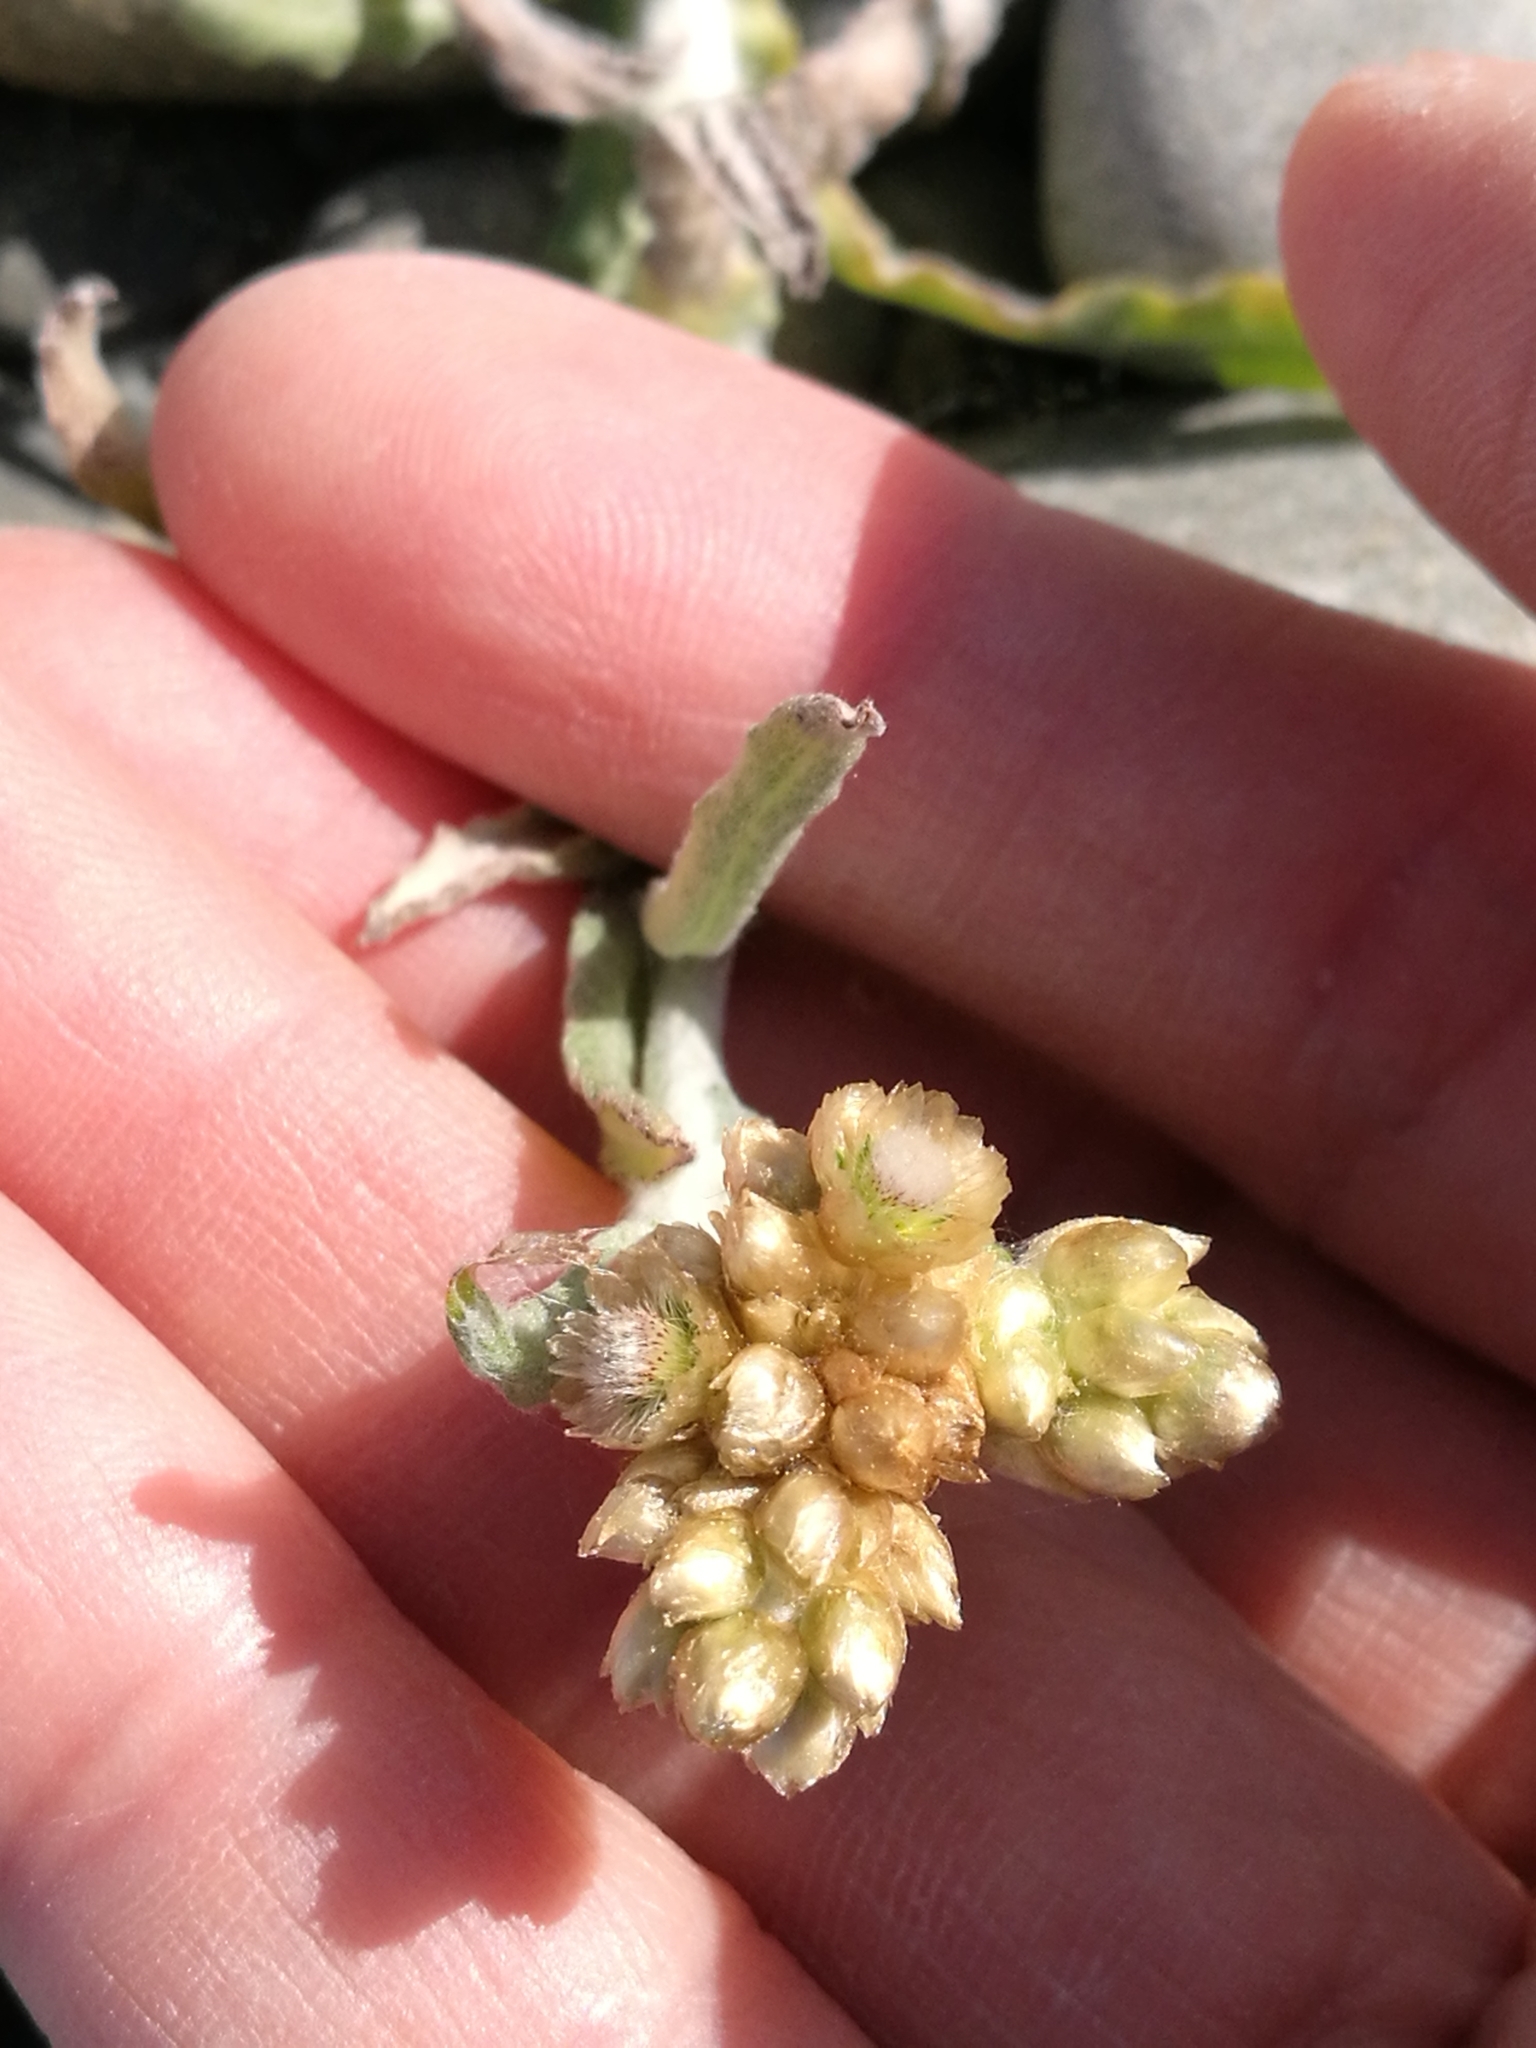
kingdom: Plantae
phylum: Tracheophyta
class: Magnoliopsida
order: Asterales
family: Asteraceae
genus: Helichrysum
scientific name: Helichrysum luteoalbum
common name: Daisy
